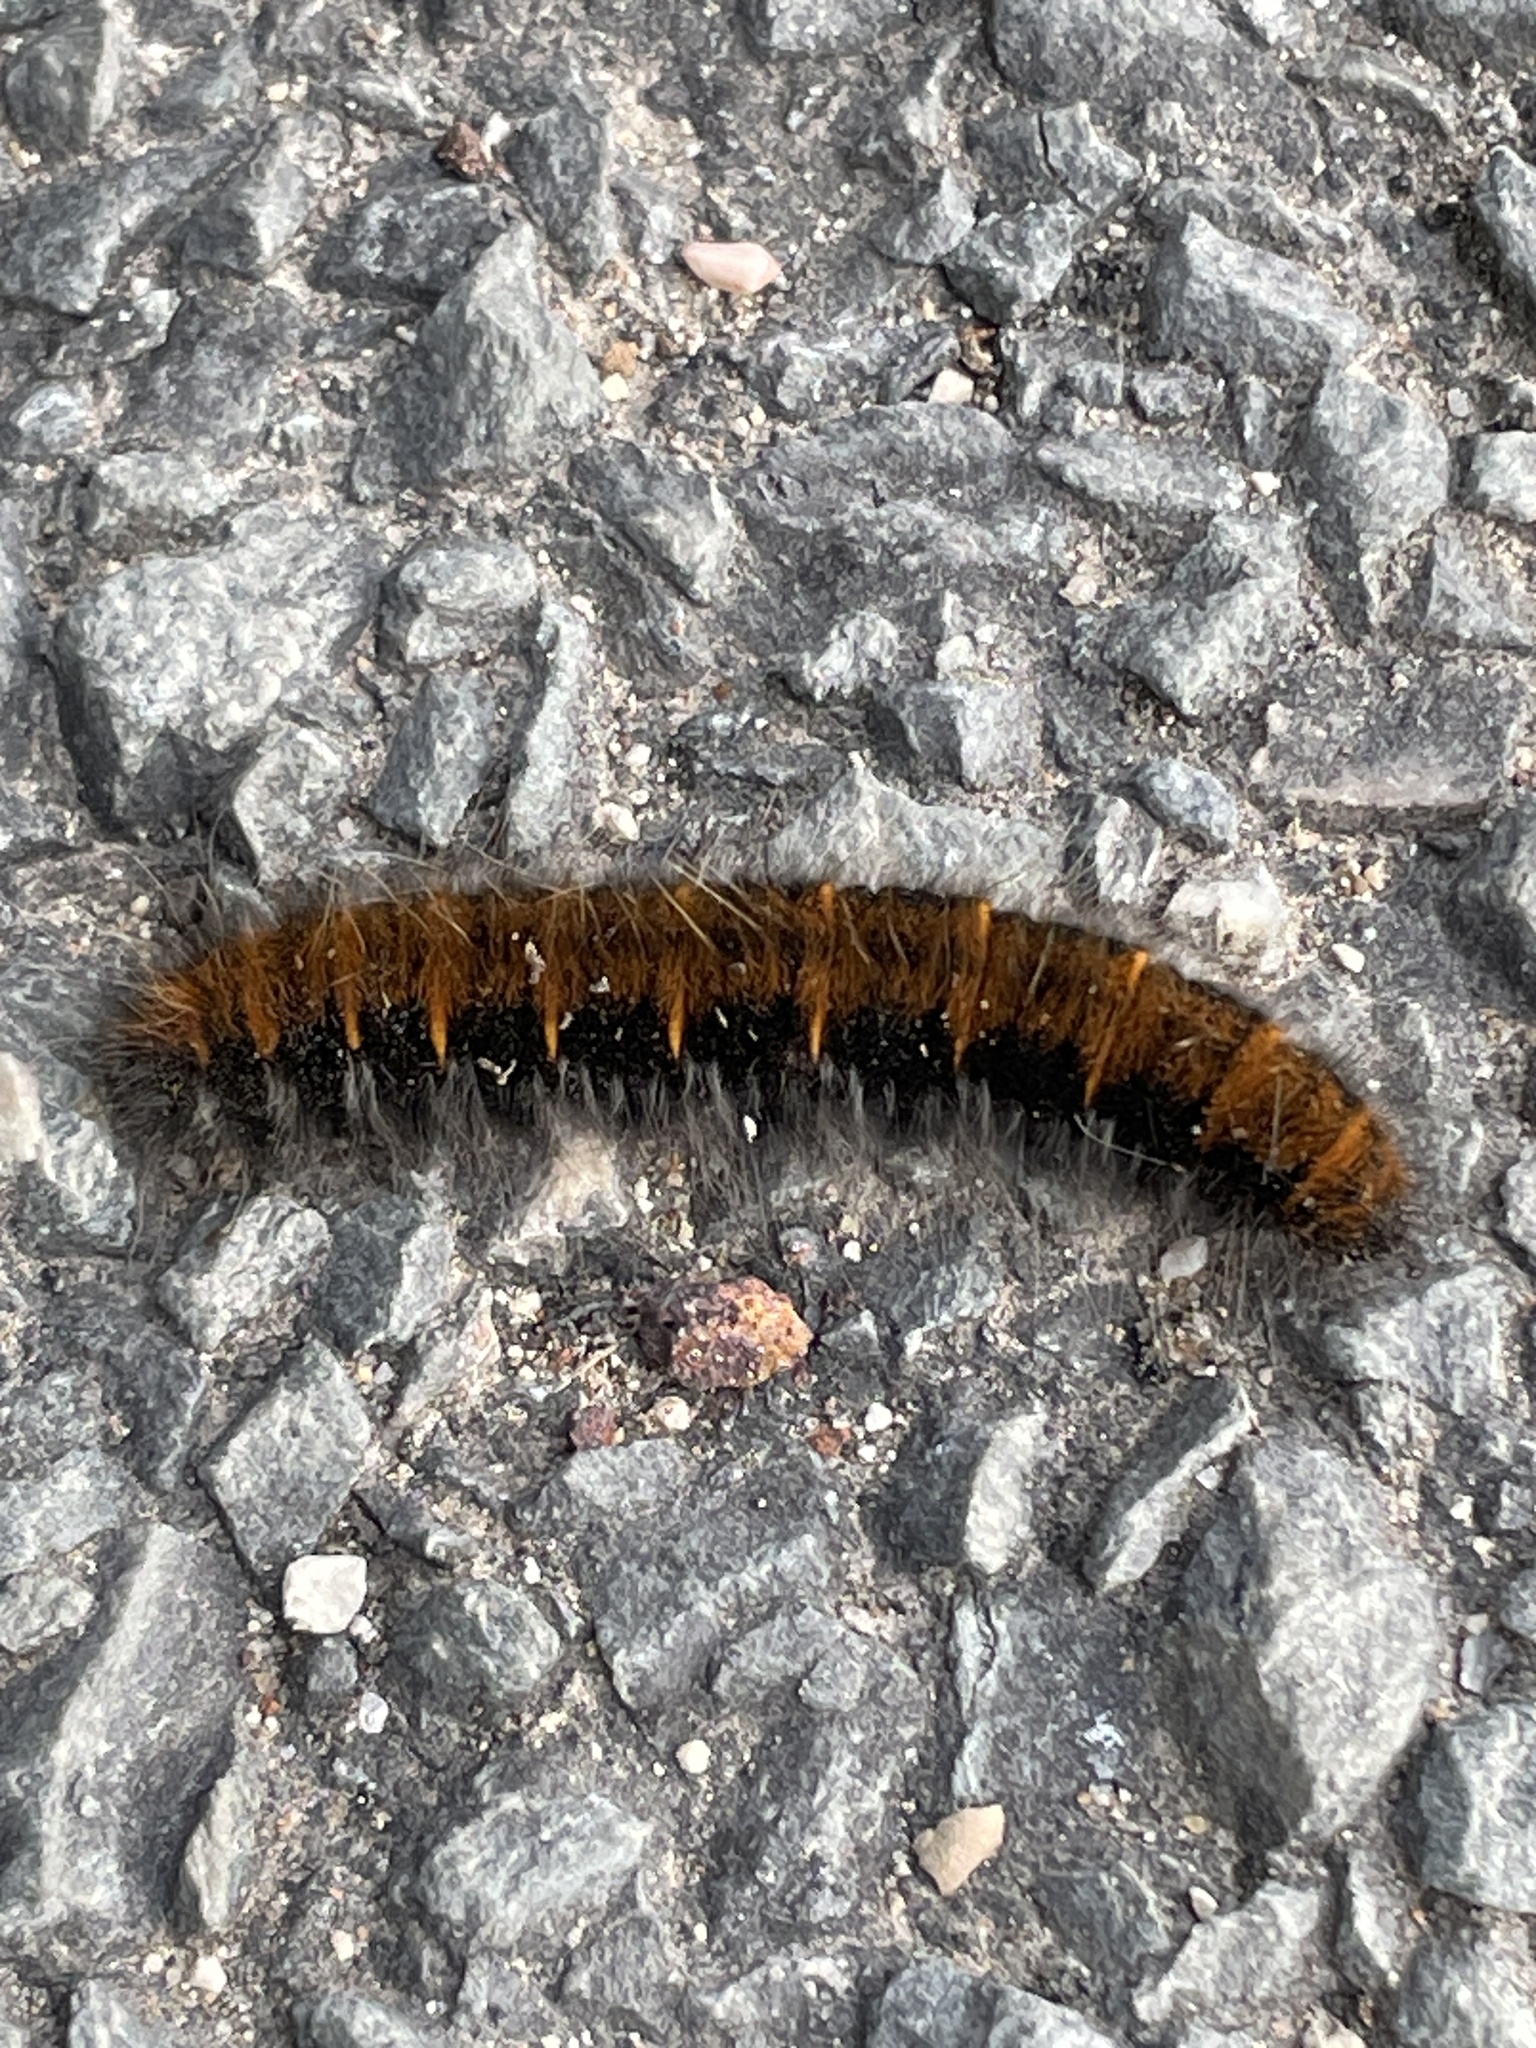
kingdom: Animalia
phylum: Arthropoda
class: Insecta
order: Lepidoptera
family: Lasiocampidae
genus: Macrothylacia
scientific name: Macrothylacia rubi
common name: Fox moth
